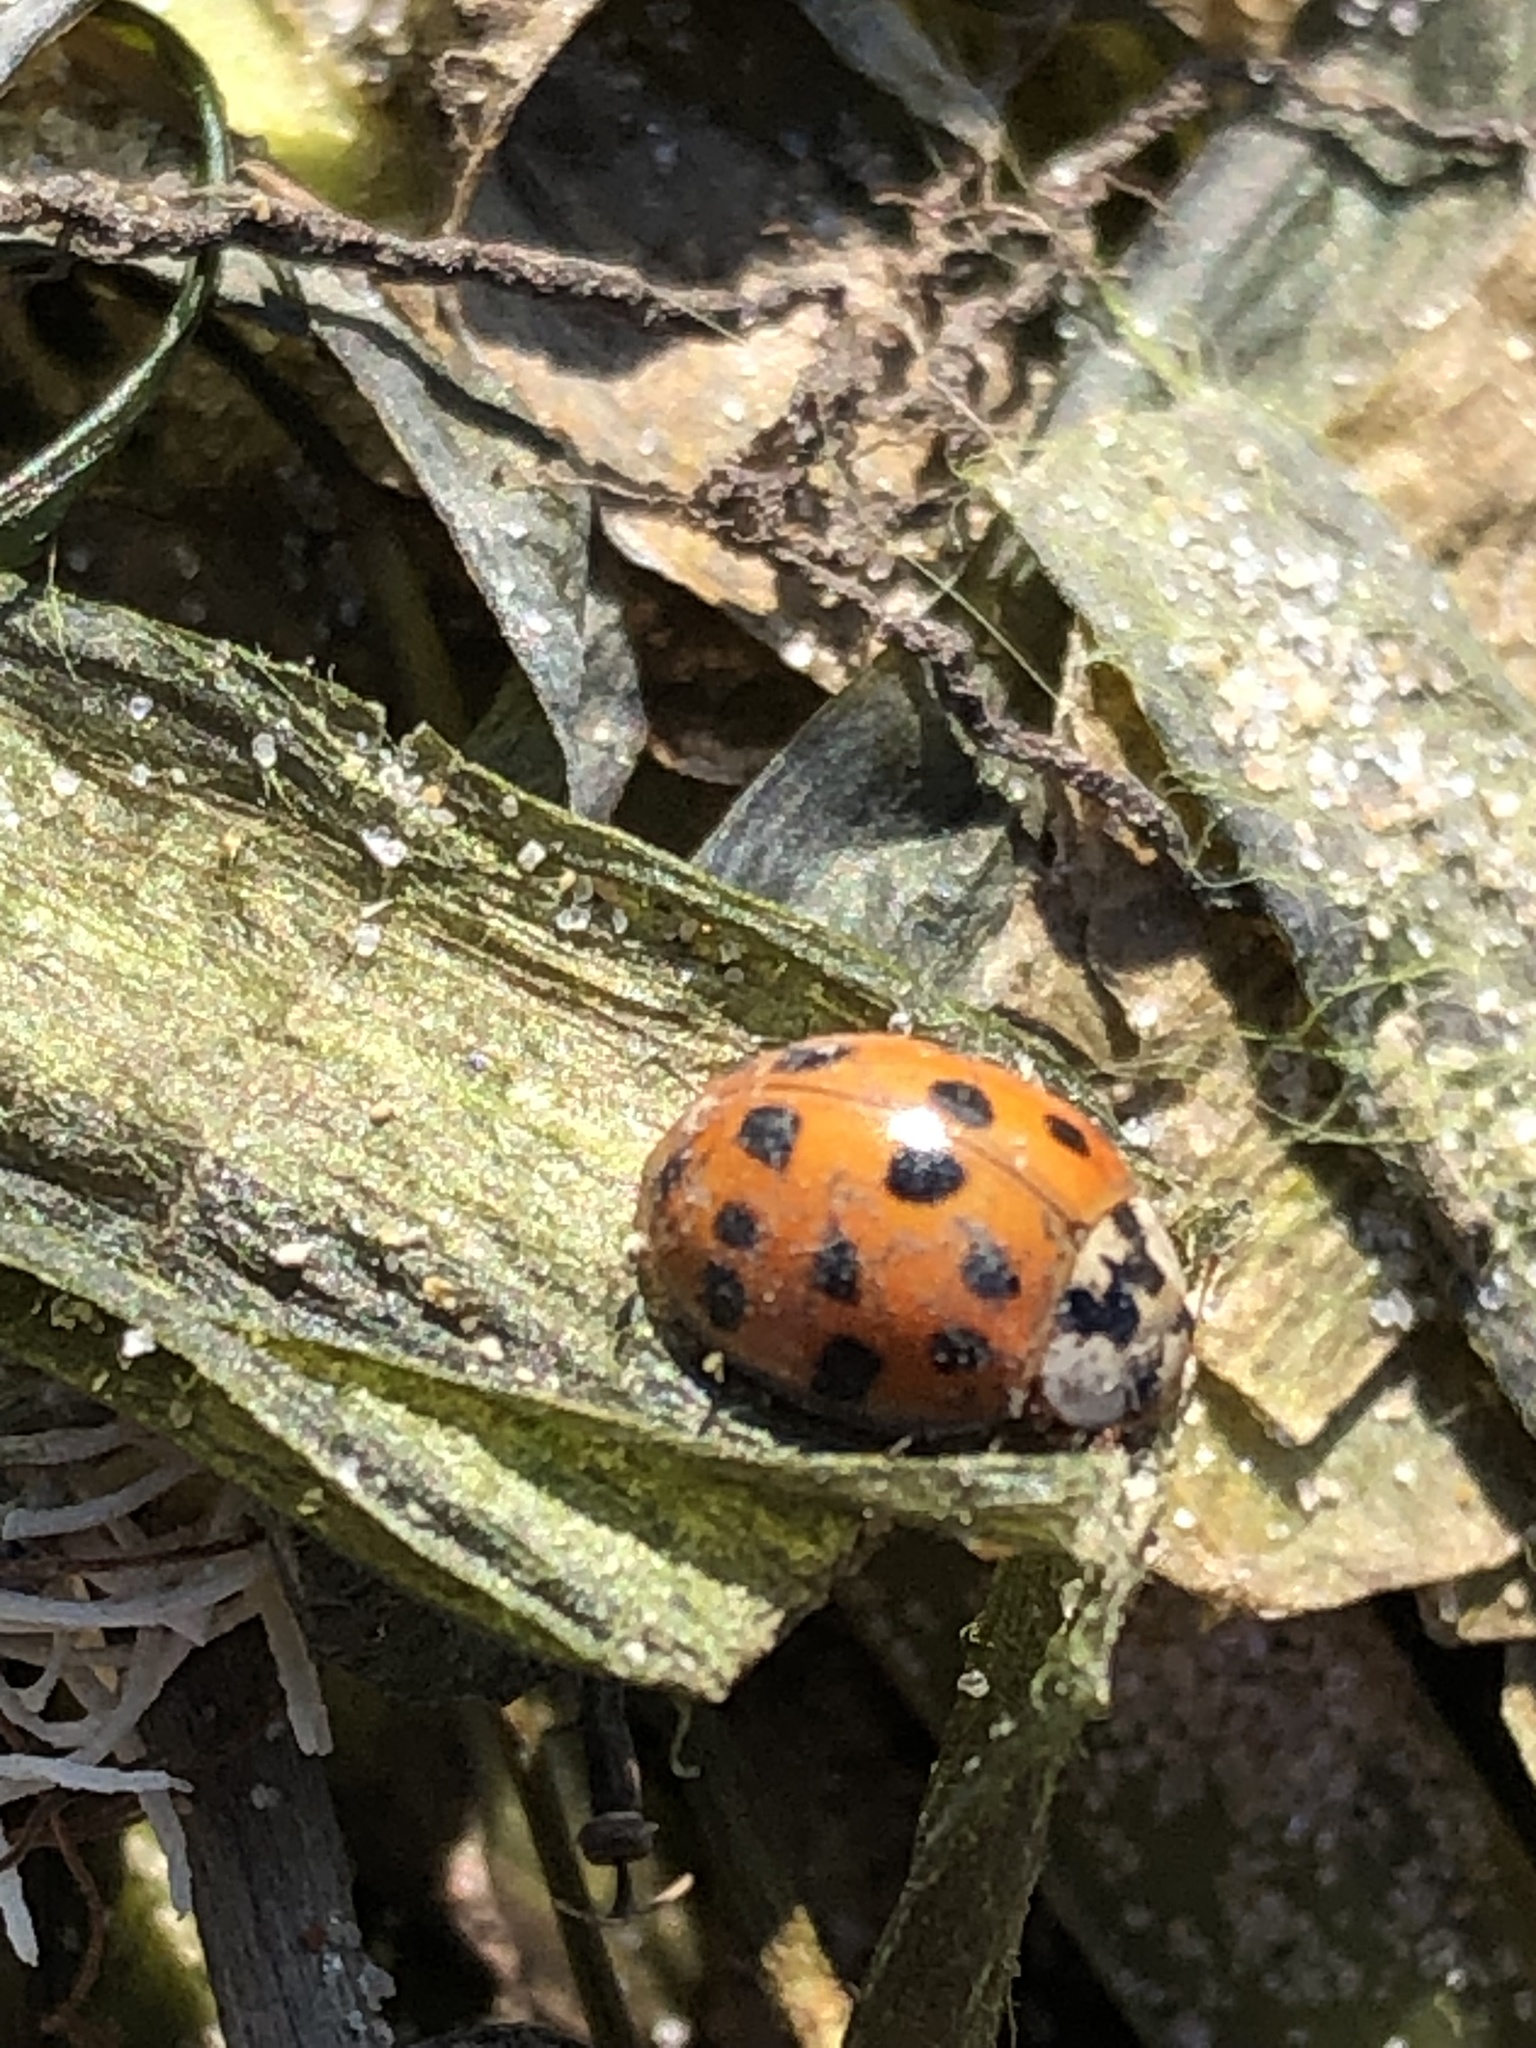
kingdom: Animalia
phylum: Arthropoda
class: Insecta
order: Coleoptera
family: Coccinellidae
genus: Harmonia
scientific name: Harmonia axyridis
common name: Harlequin ladybird
